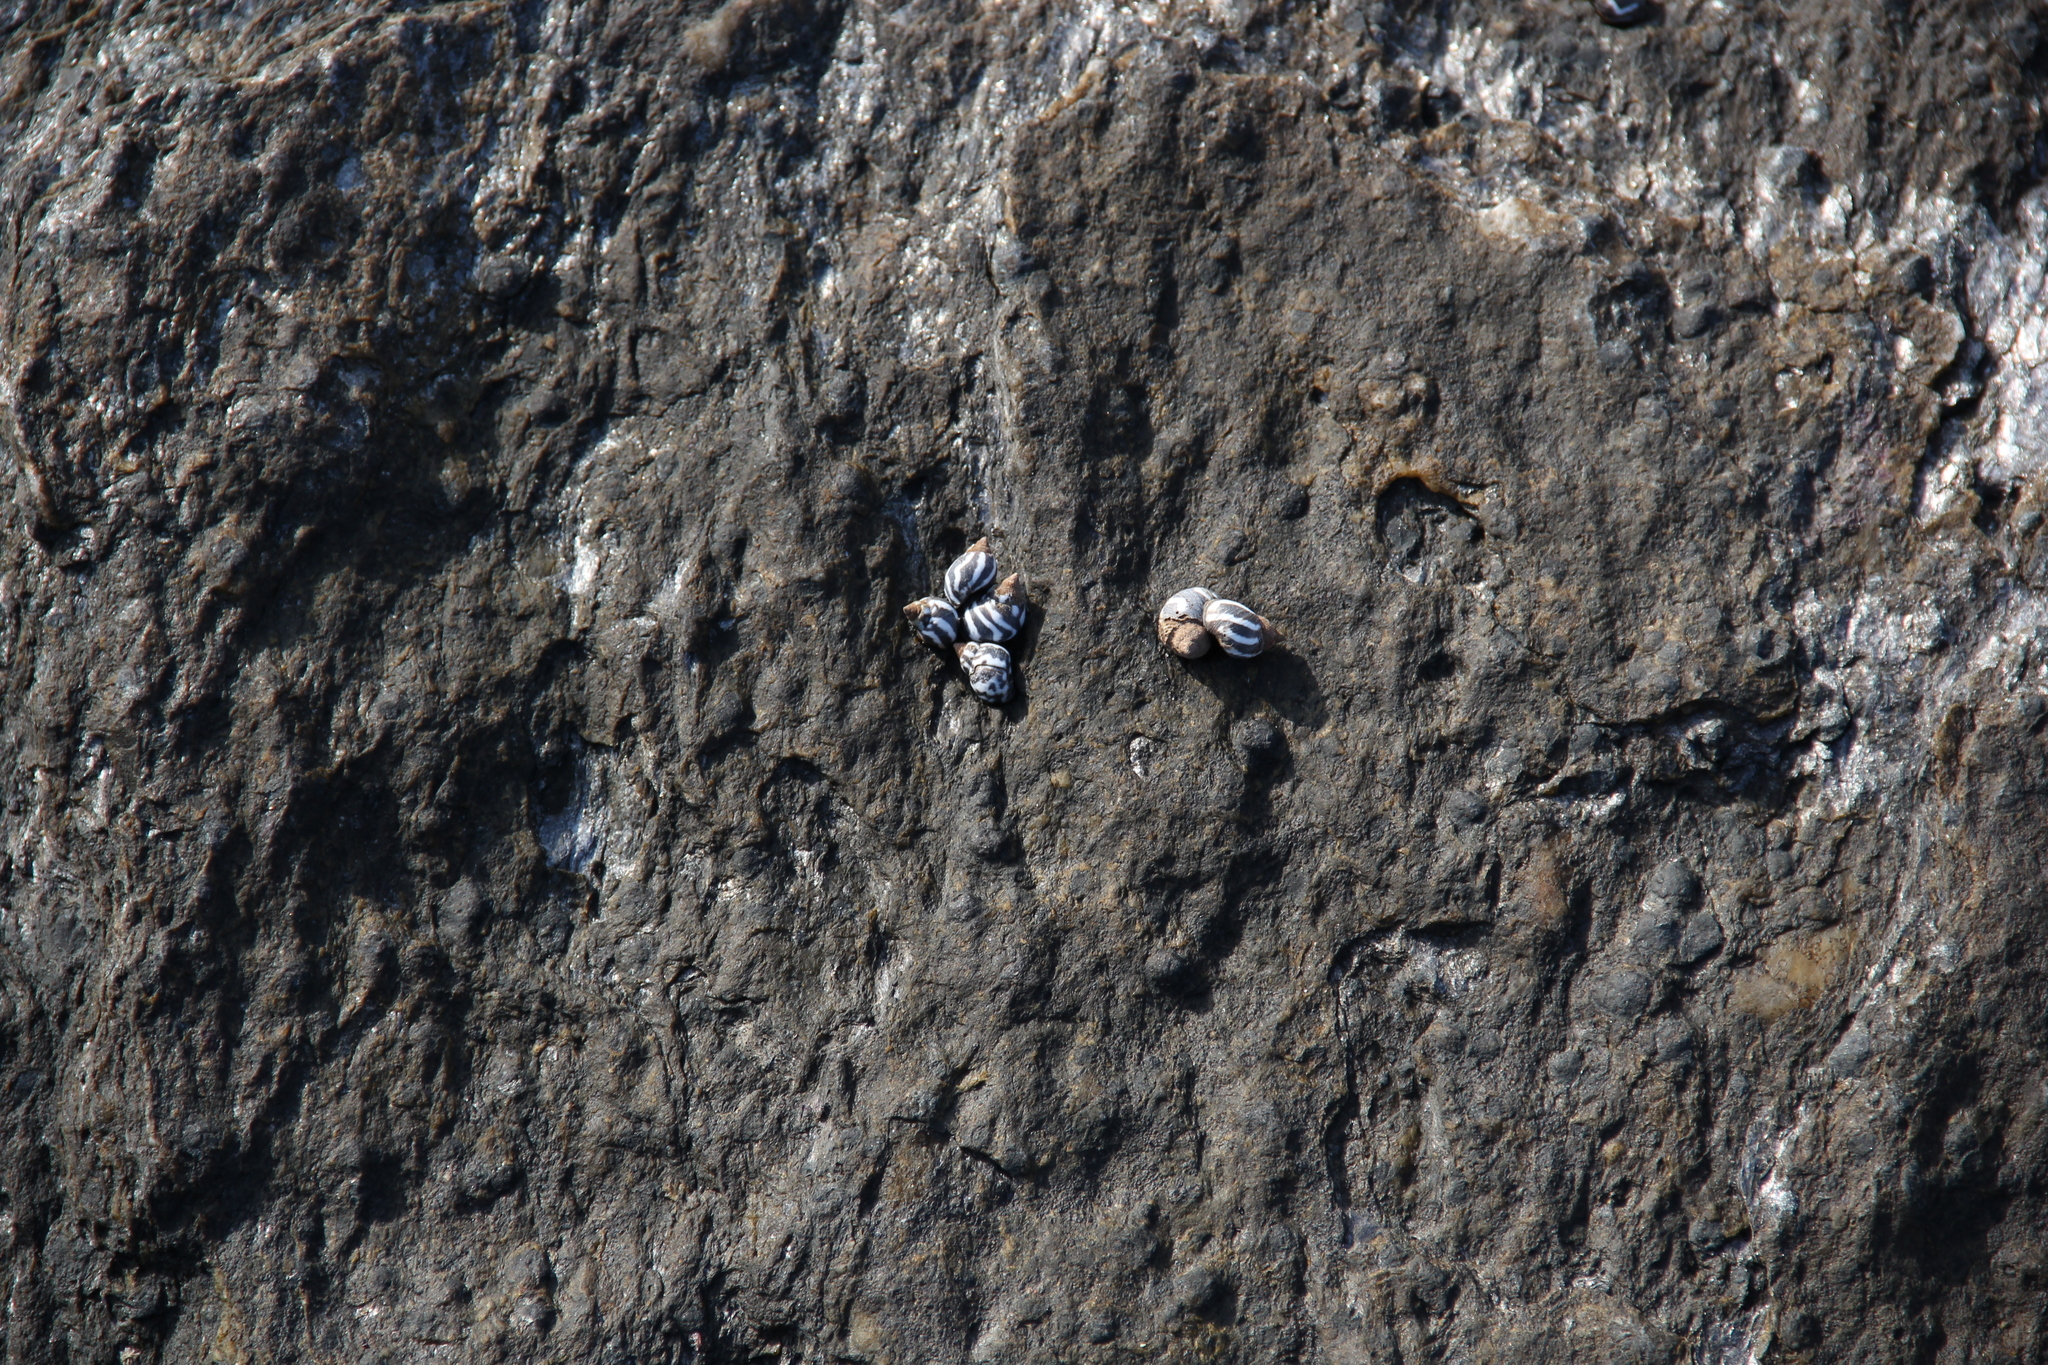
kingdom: Animalia
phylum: Mollusca
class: Gastropoda
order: Littorinimorpha
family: Littorinidae
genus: Echinolittorina
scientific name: Echinolittorina peruviana
